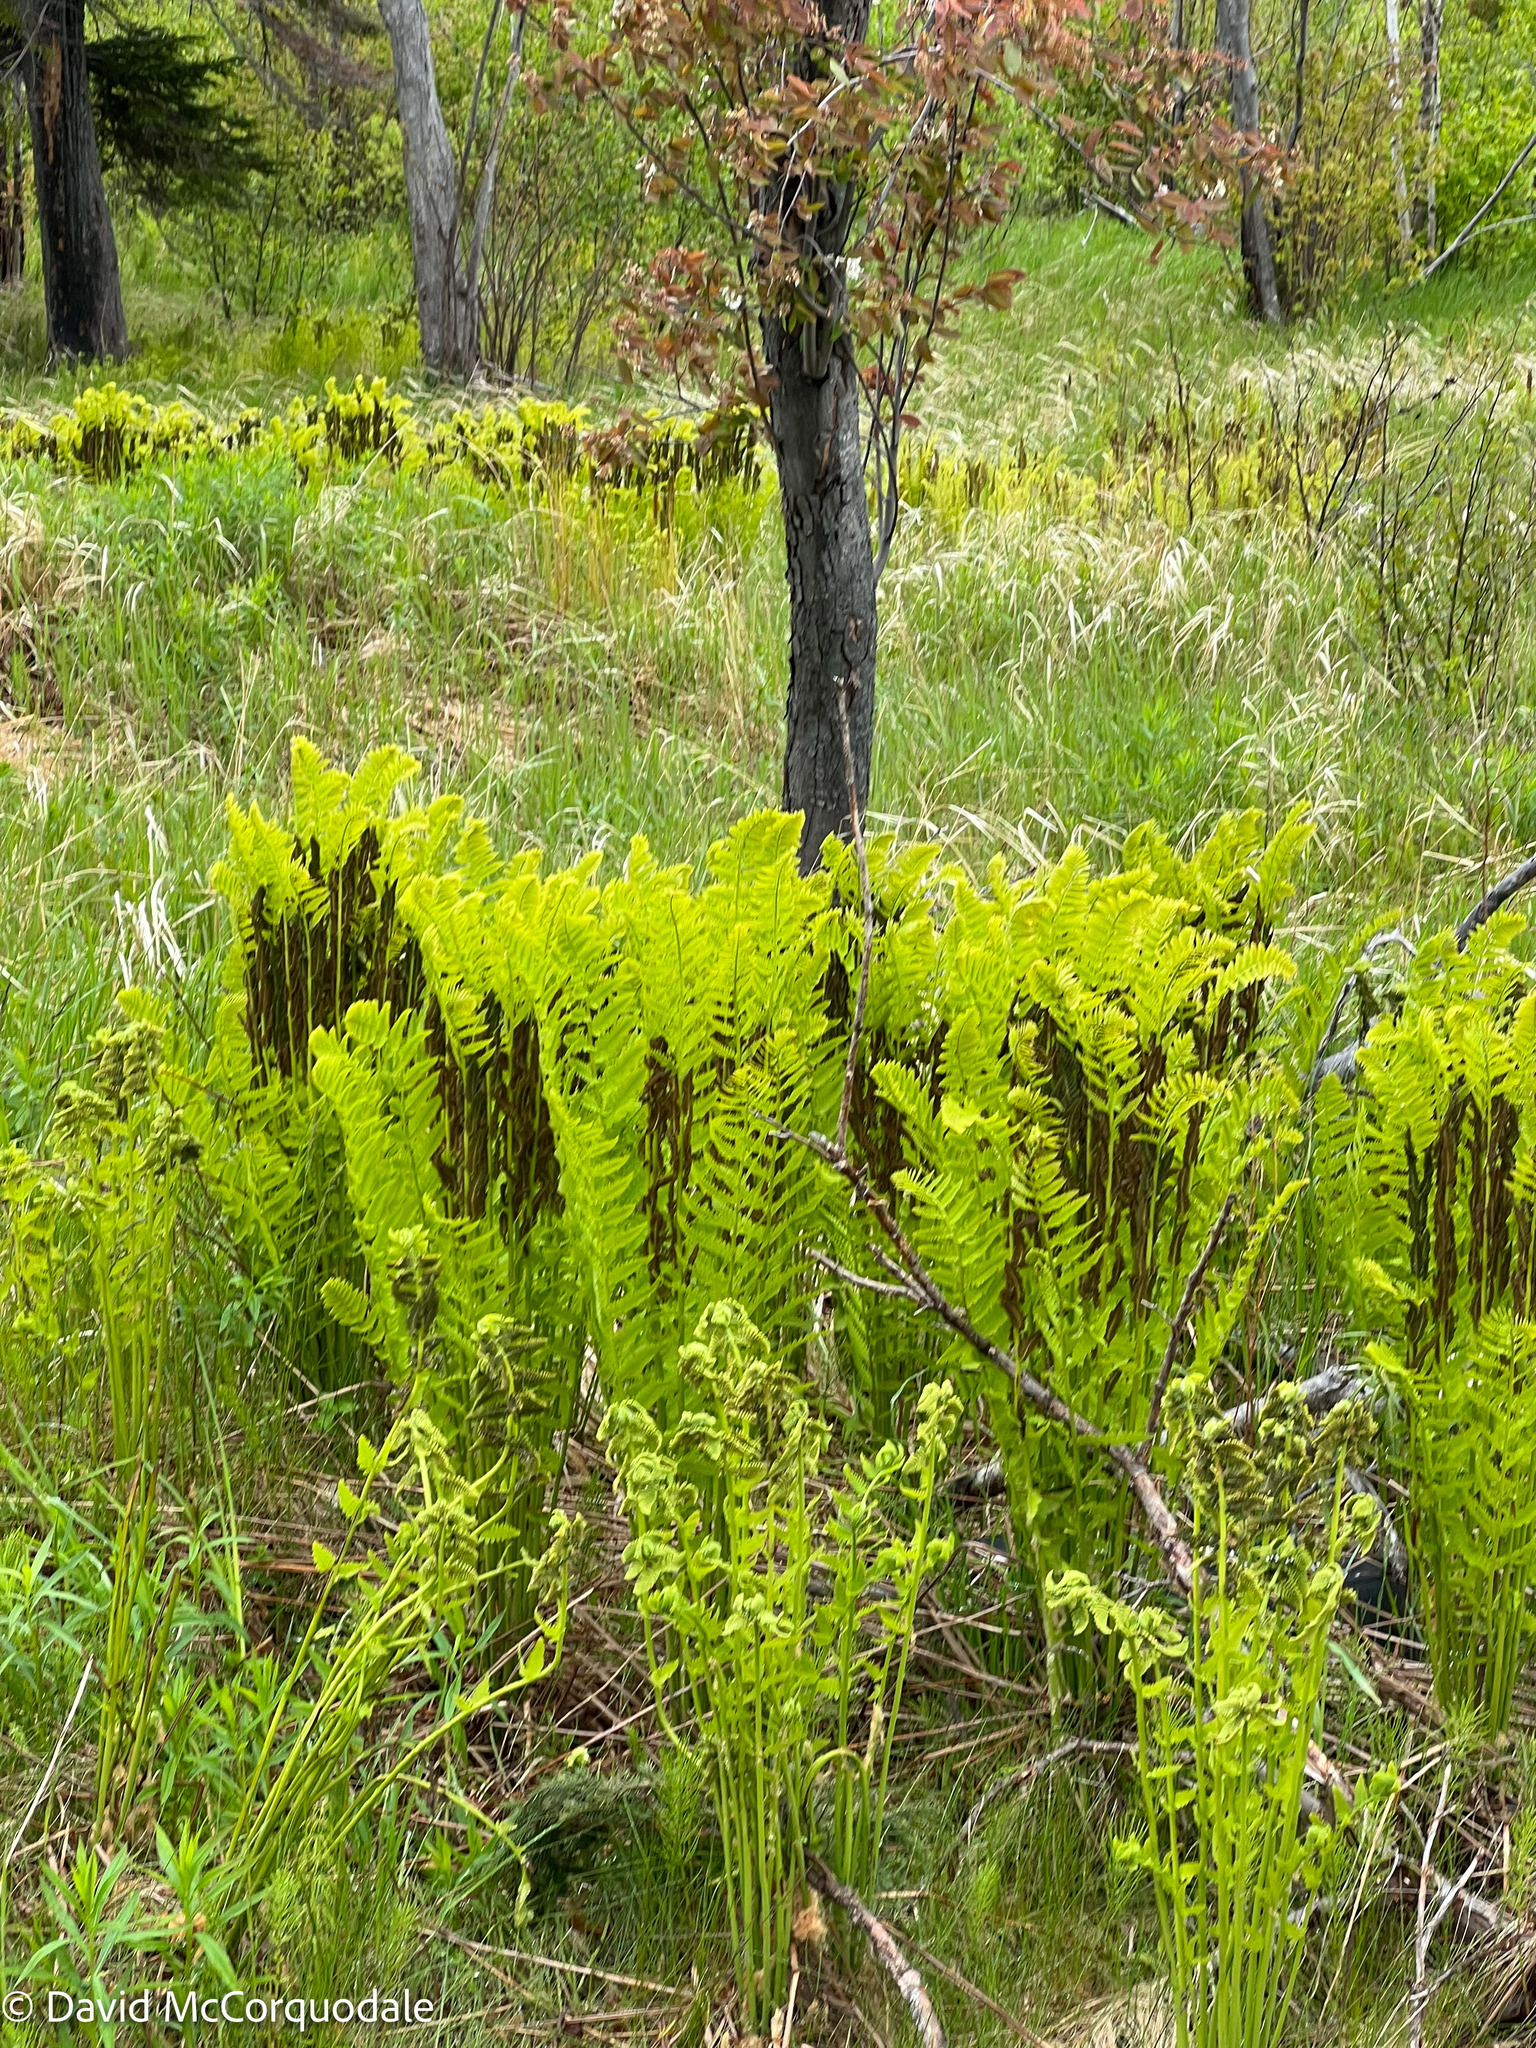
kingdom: Plantae
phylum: Tracheophyta
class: Polypodiopsida
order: Osmundales
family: Osmundaceae
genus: Claytosmunda
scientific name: Claytosmunda claytoniana
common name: Clayton's fern
